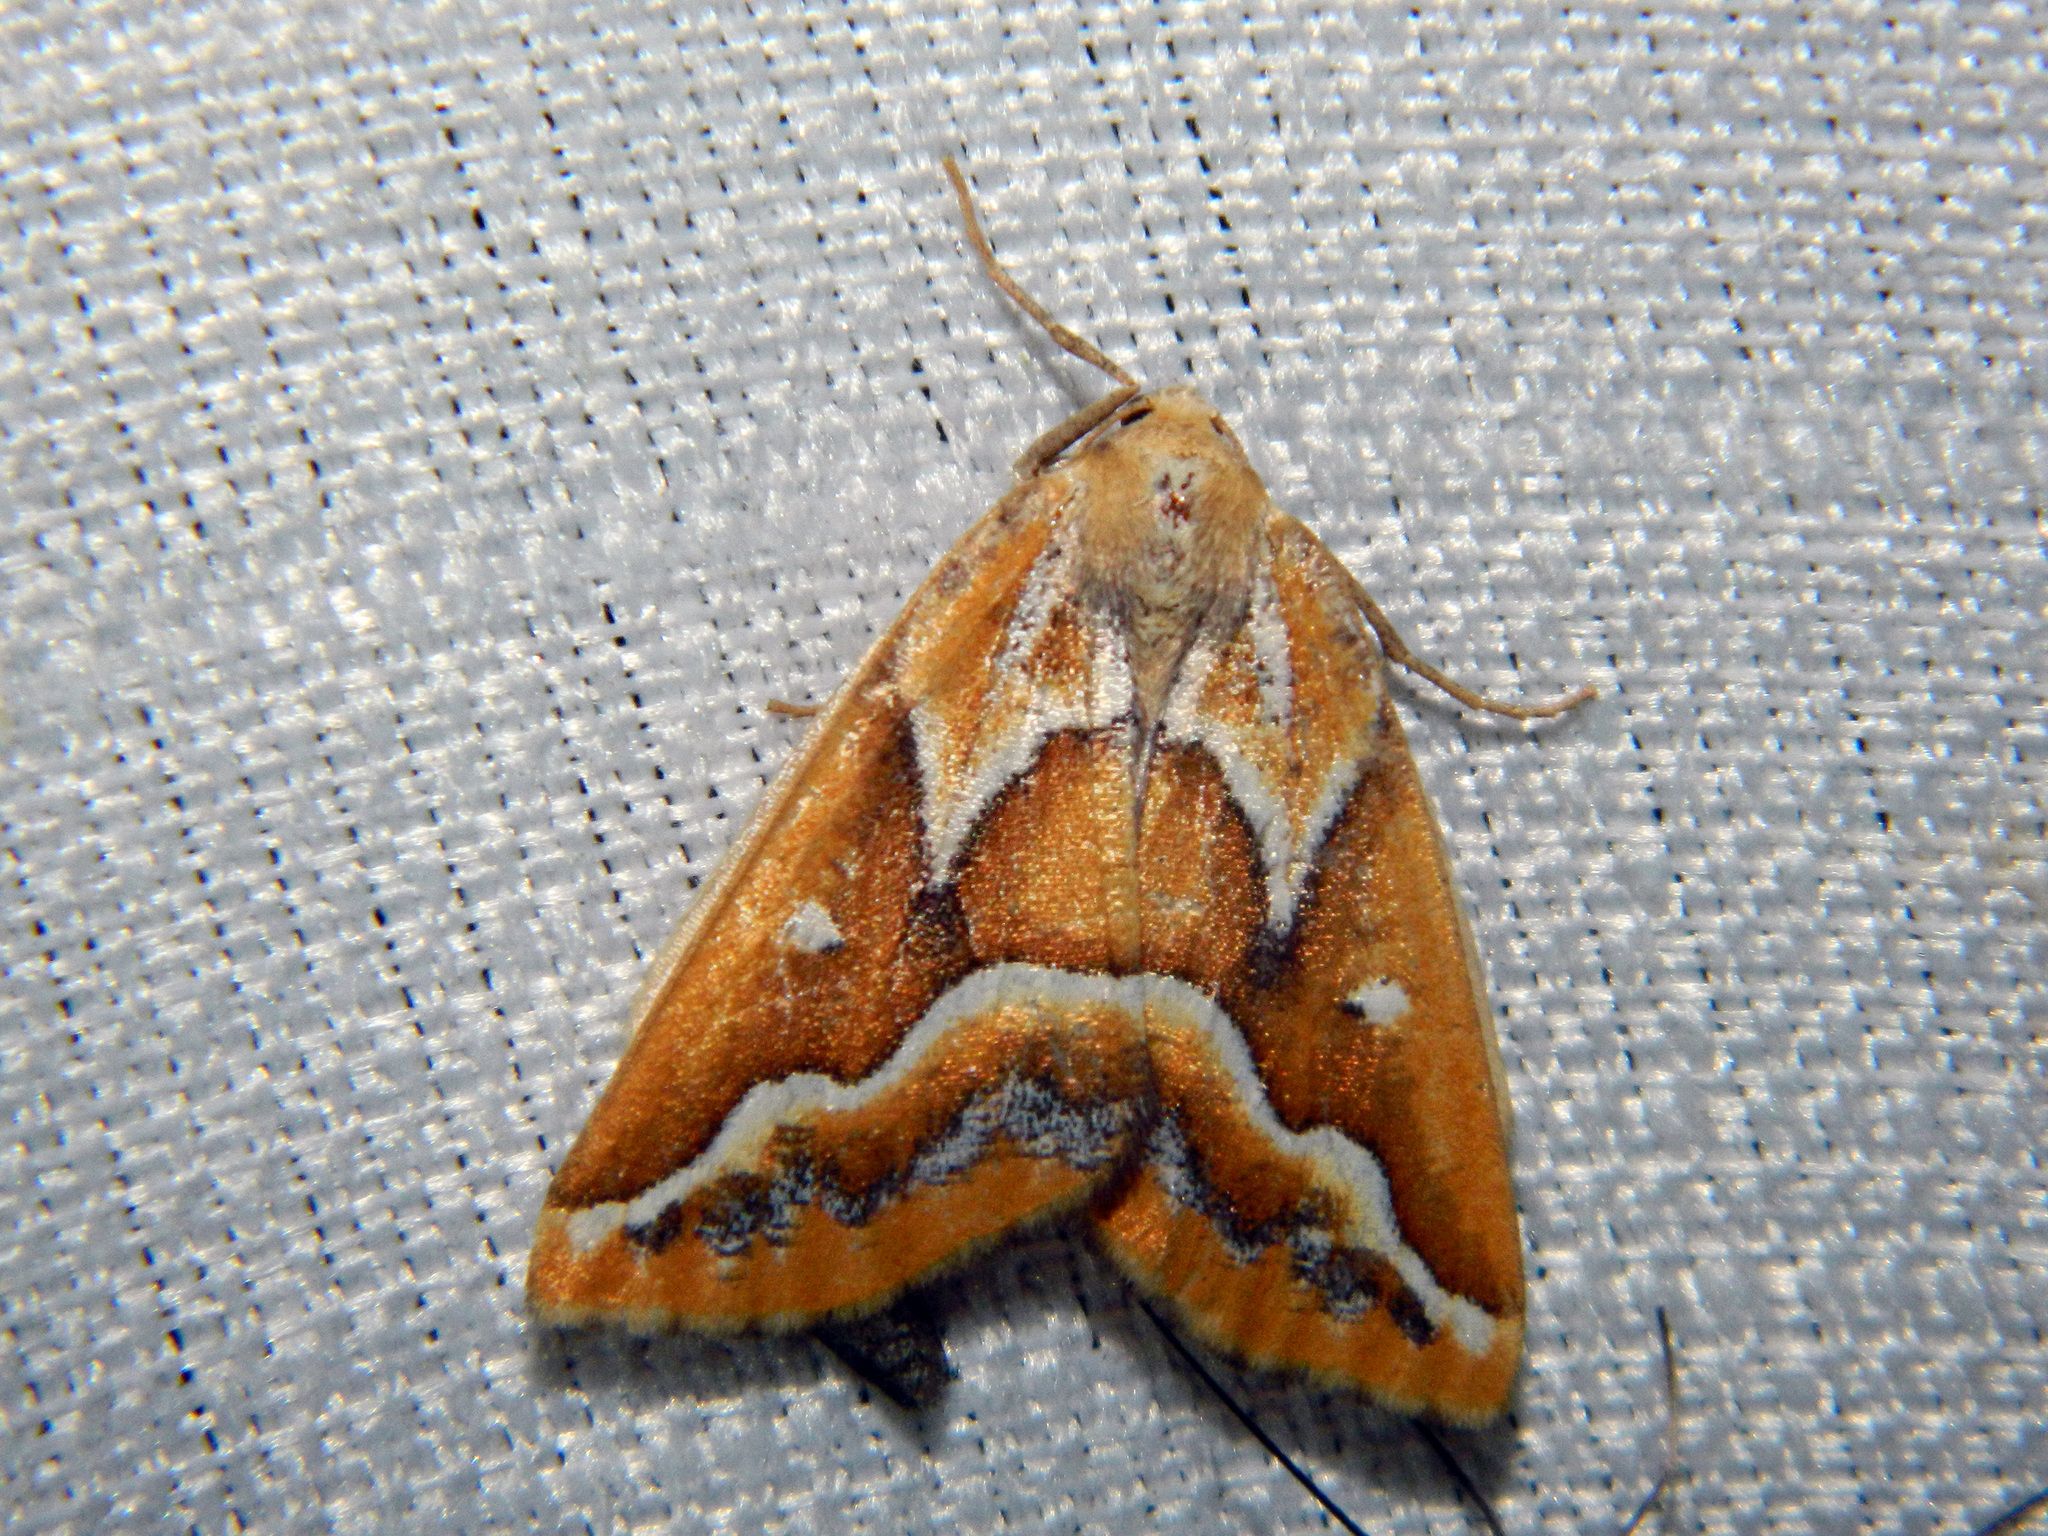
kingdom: Animalia
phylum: Arthropoda
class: Insecta
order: Lepidoptera
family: Geometridae
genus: Caripeta
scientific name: Caripeta angustiorata
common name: Brown pine looper
